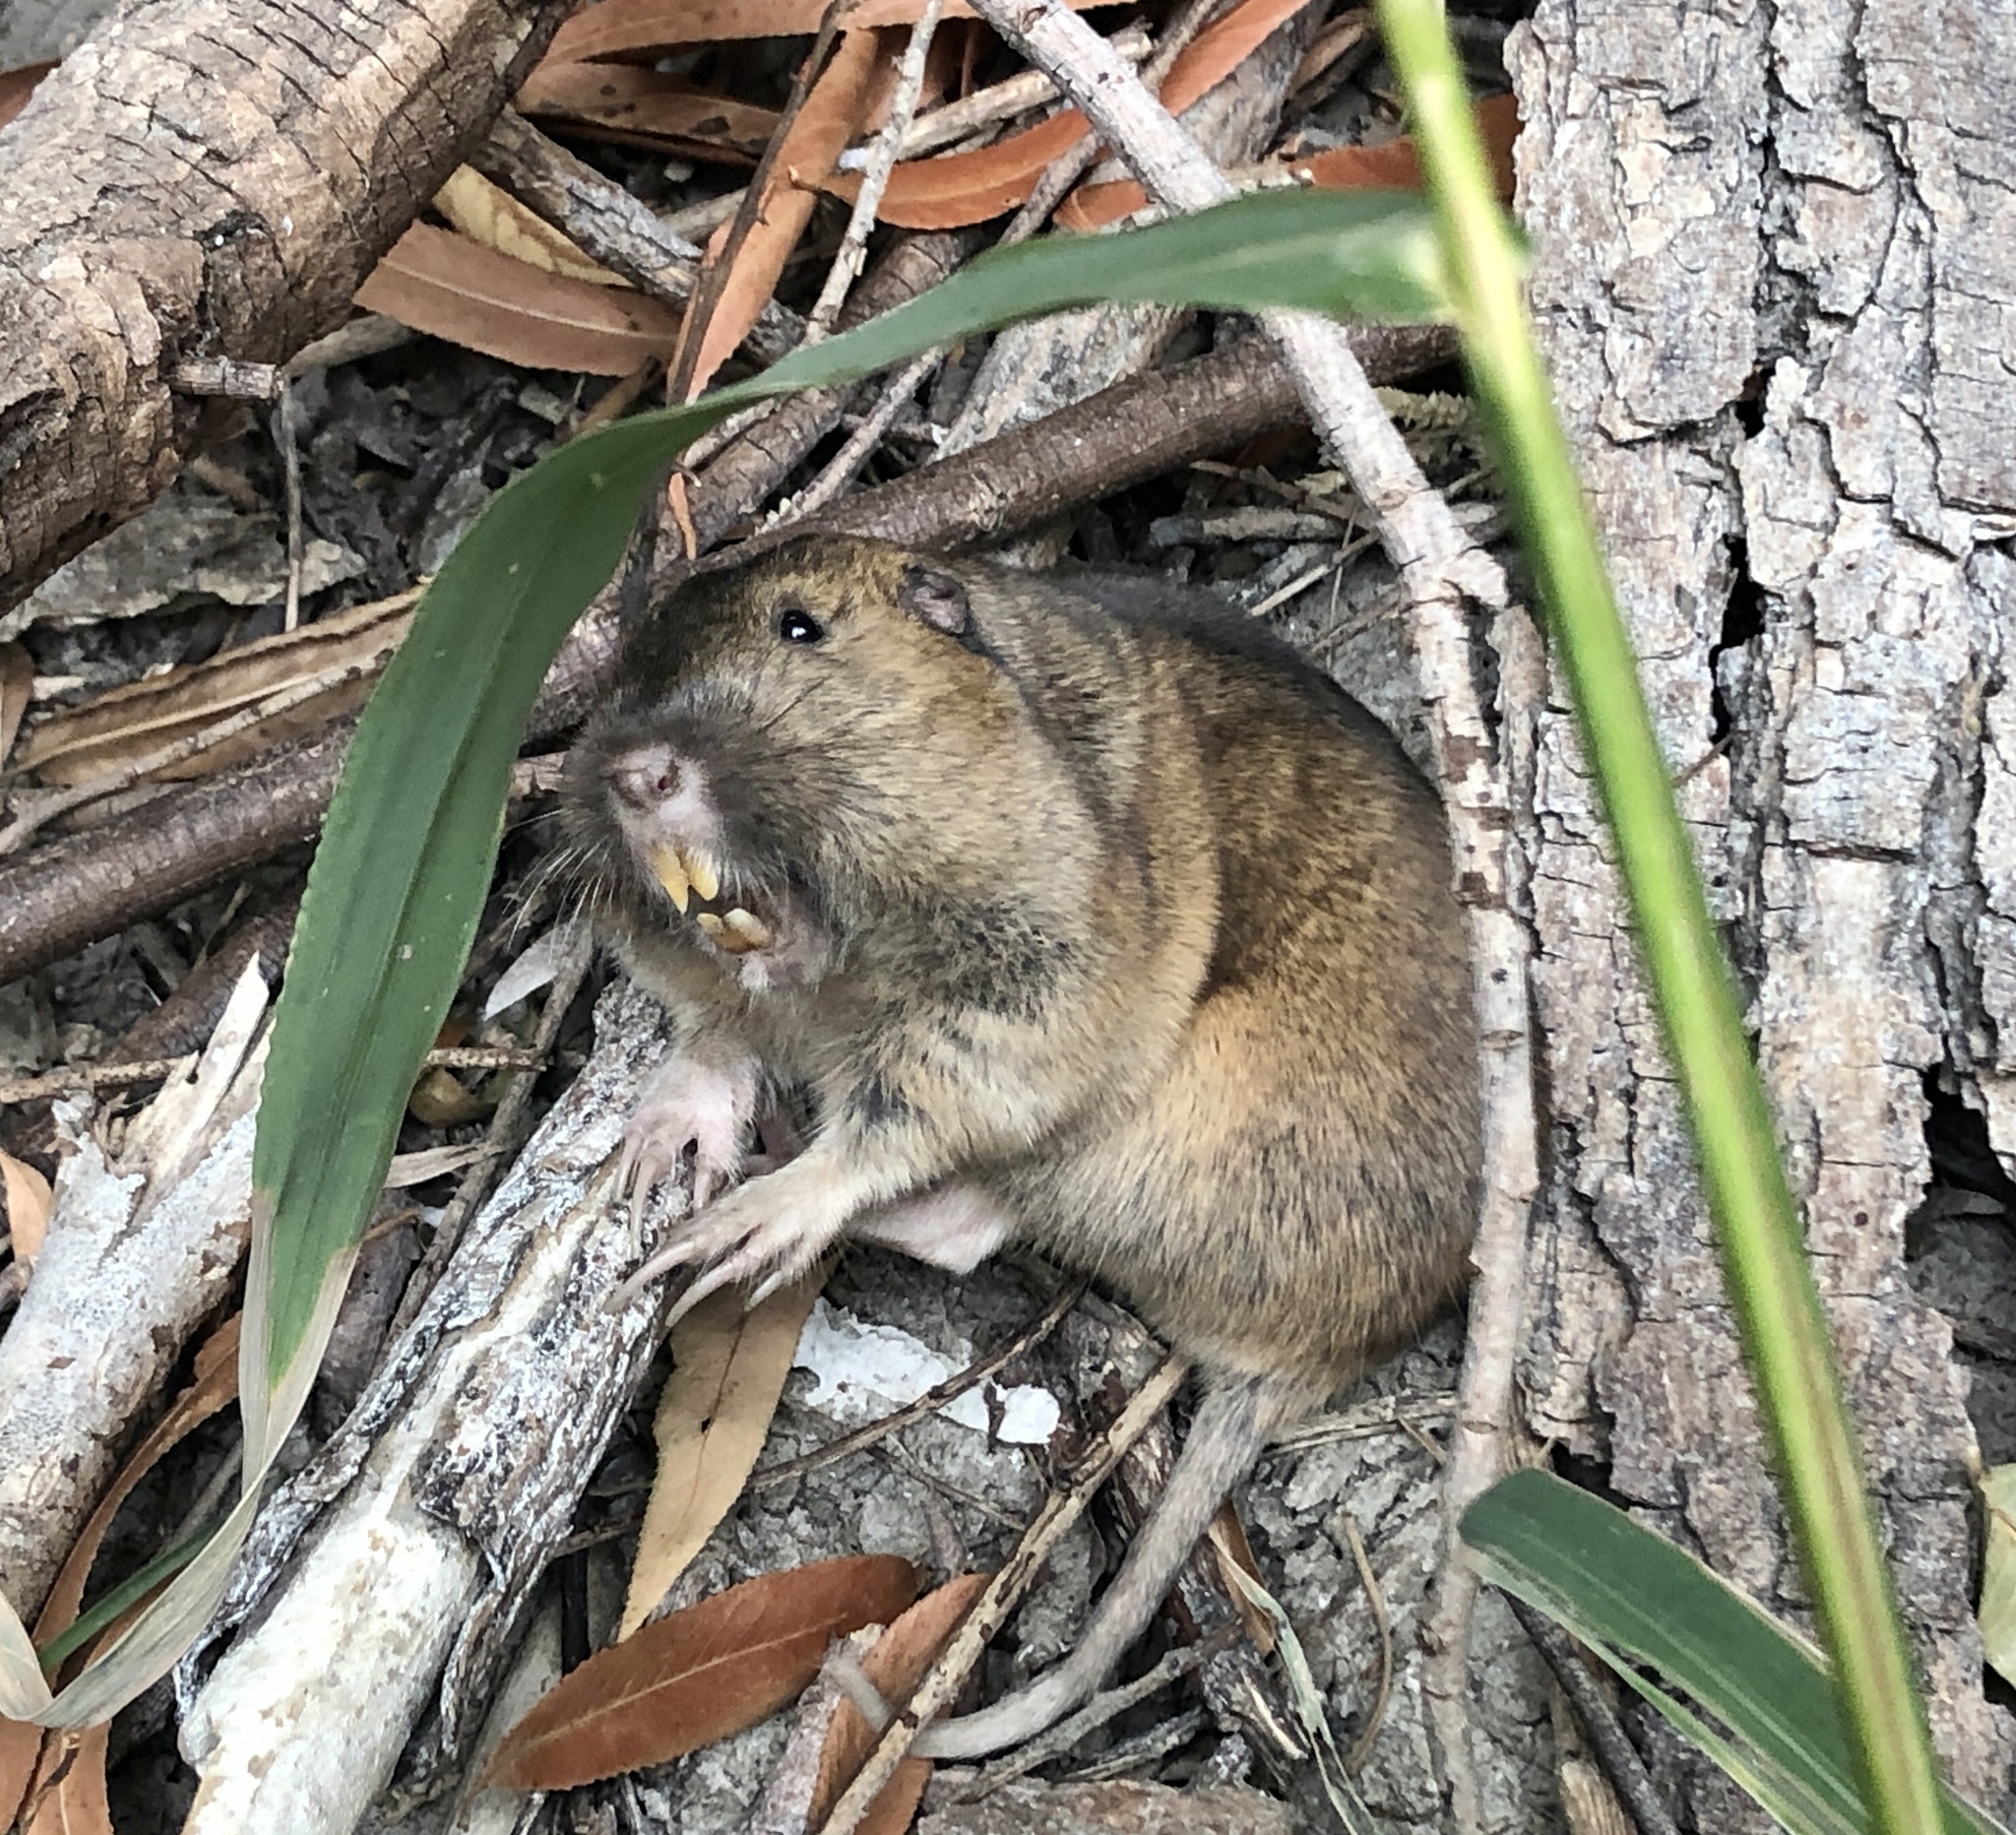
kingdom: Animalia
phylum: Chordata
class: Mammalia
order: Rodentia
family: Geomyidae
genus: Thomomys
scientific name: Thomomys bottae
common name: Botta's pocket gopher
